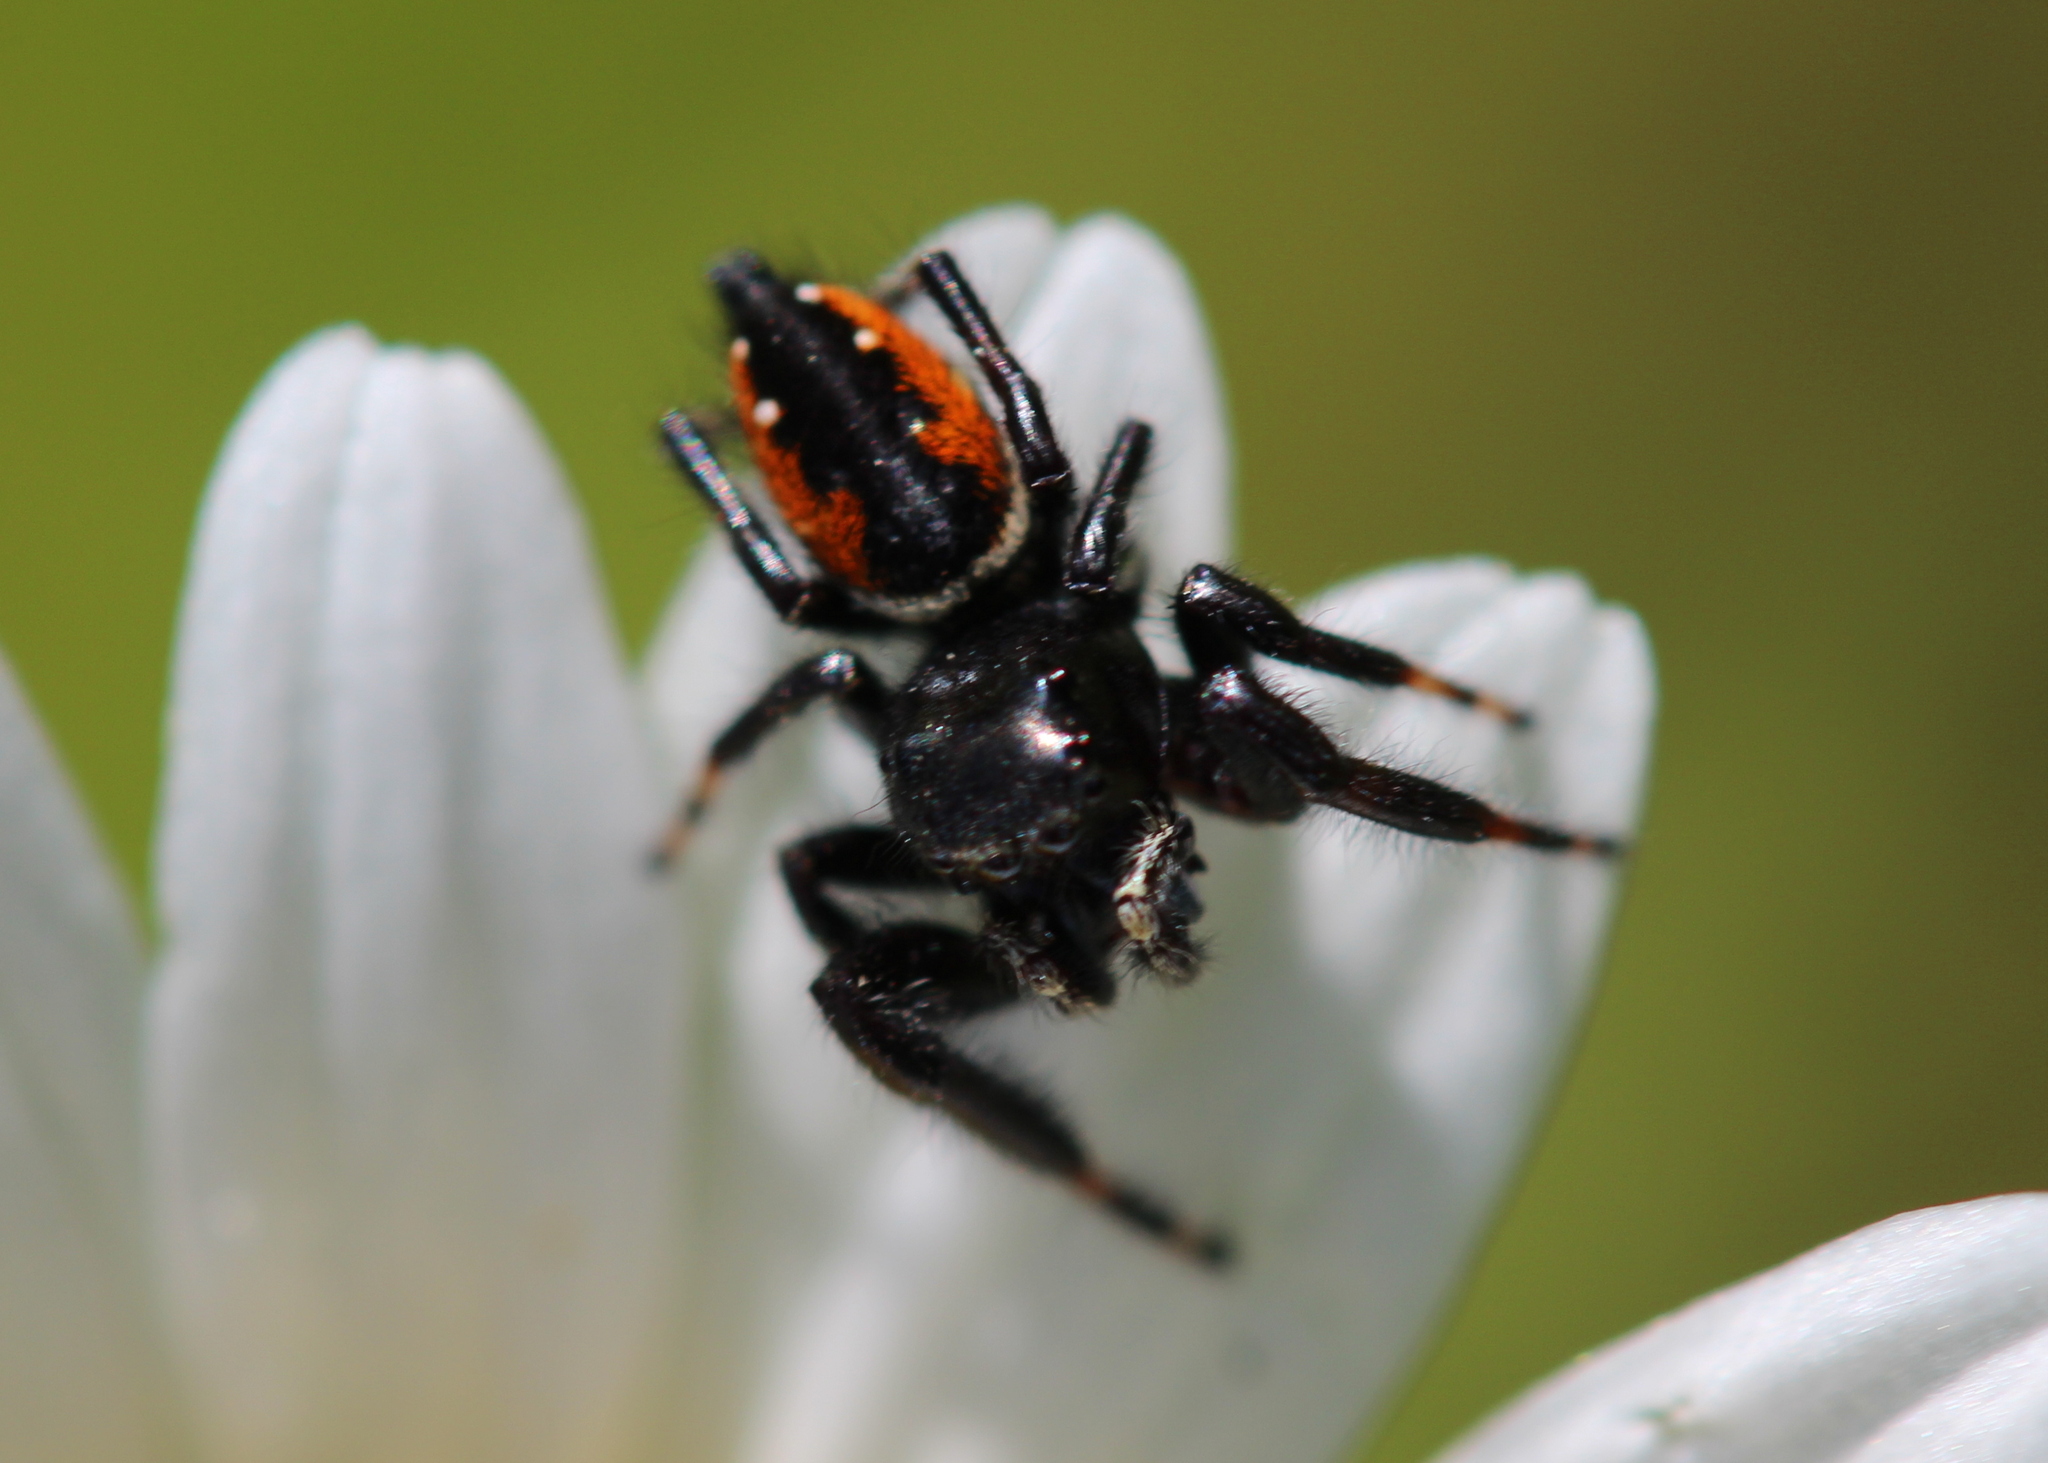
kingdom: Animalia
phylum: Arthropoda
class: Arachnida
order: Araneae
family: Salticidae
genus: Phidippus
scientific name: Phidippus clarus
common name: Brilliant jumping spider
